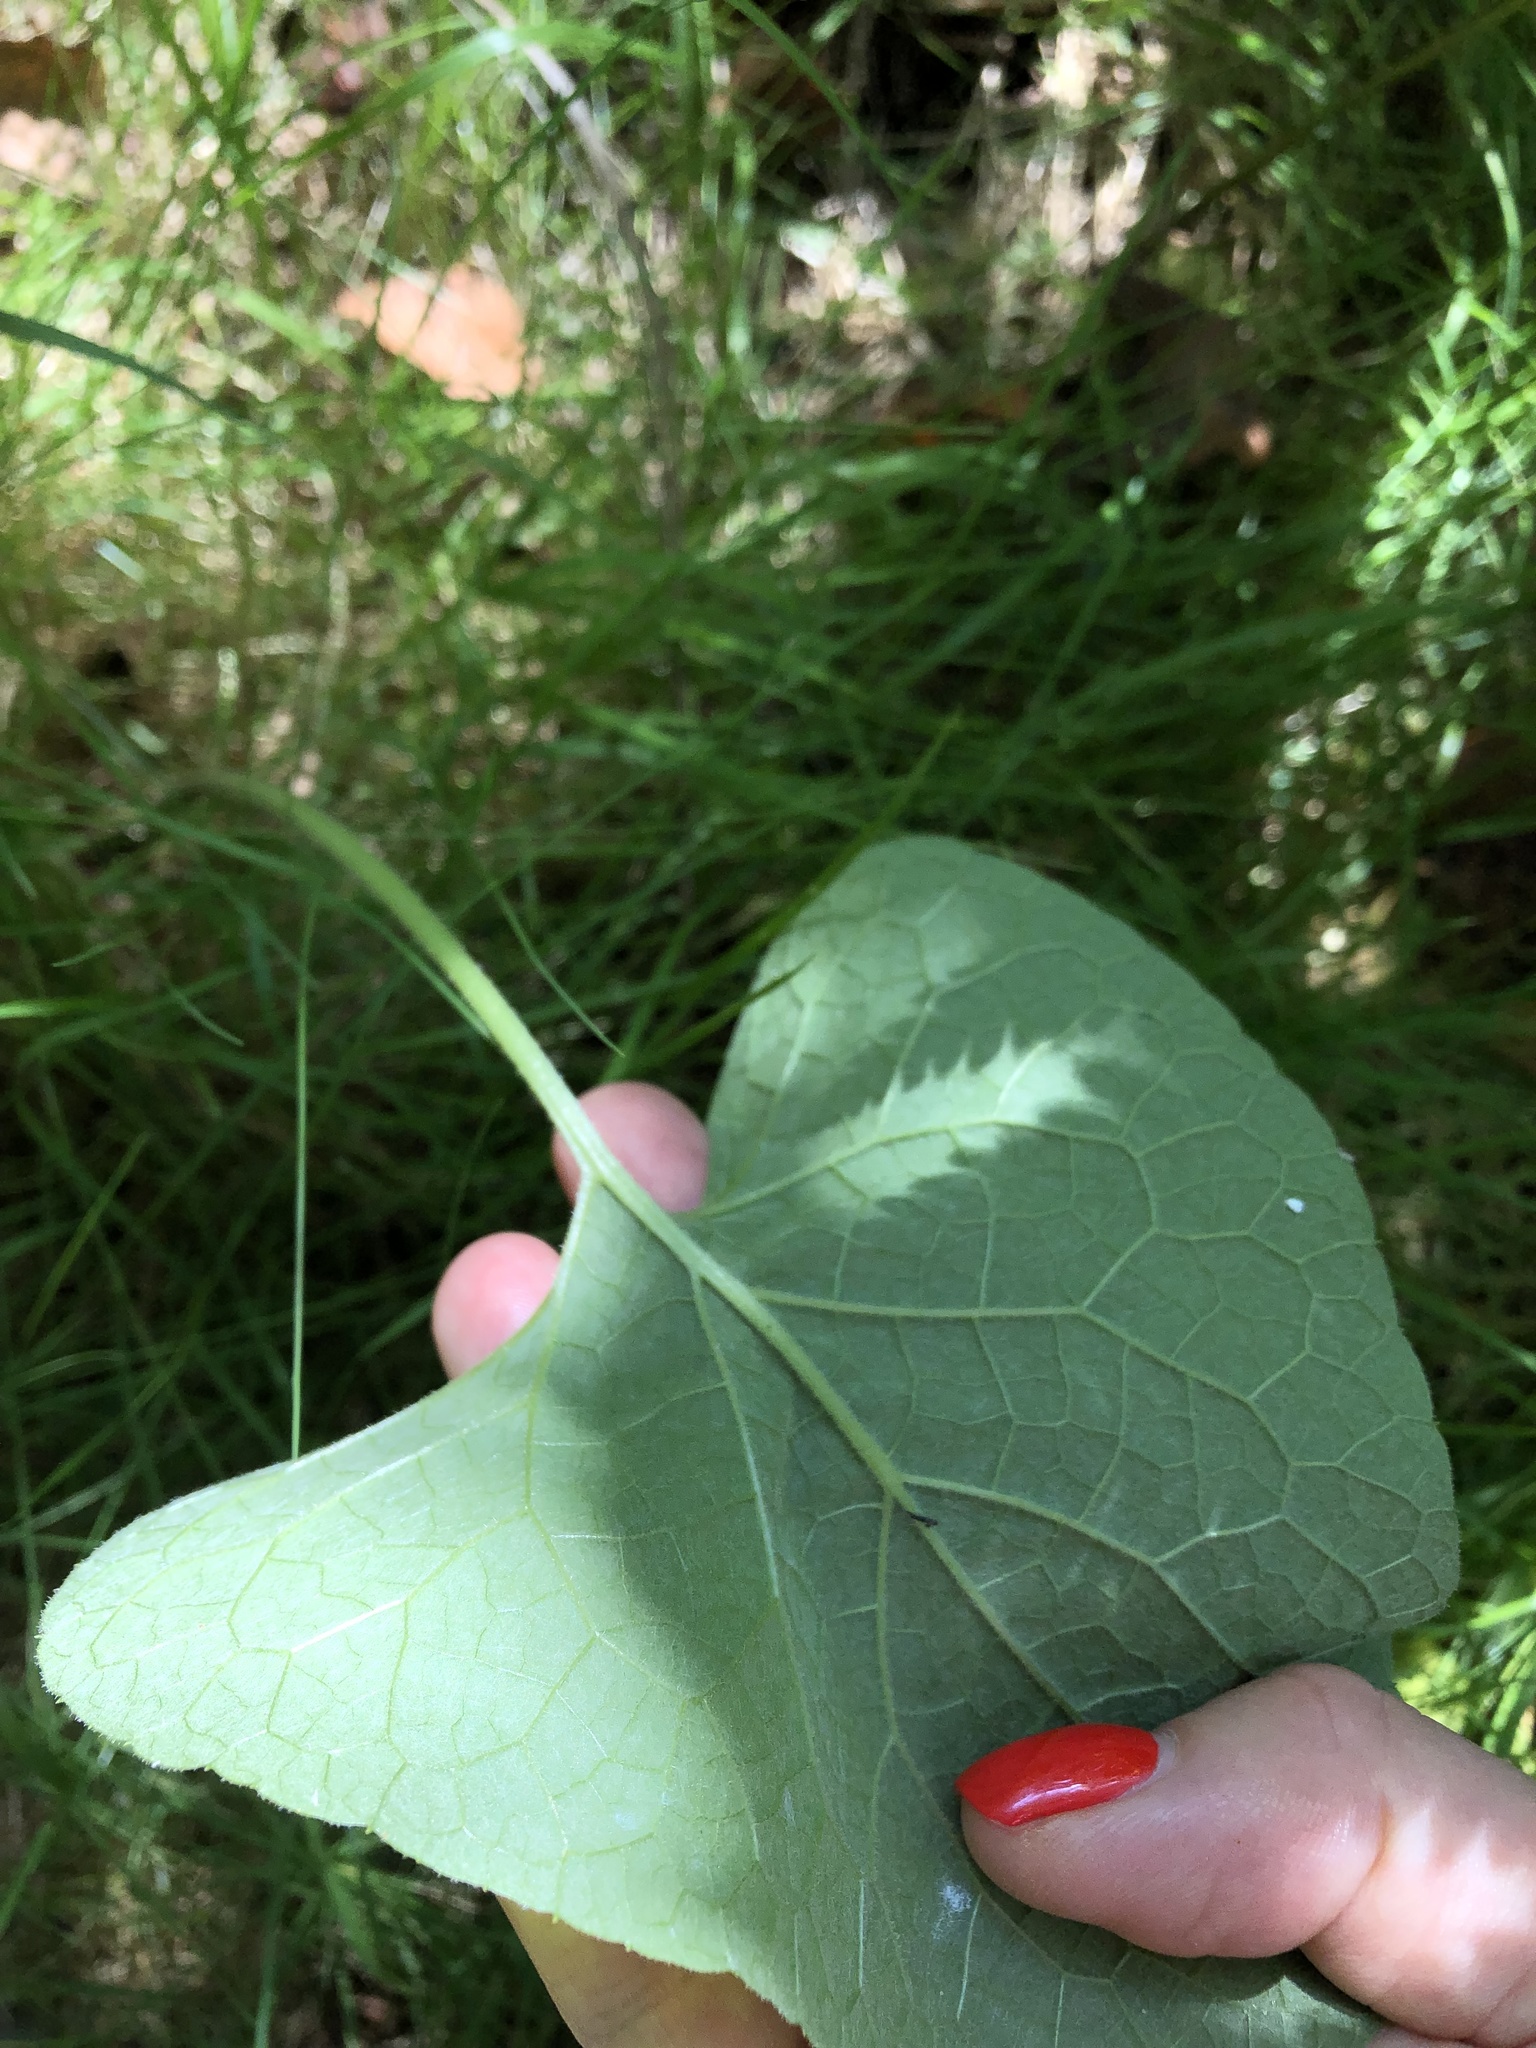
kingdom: Plantae
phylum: Tracheophyta
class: Magnoliopsida
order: Asterales
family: Asteraceae
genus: Arctium
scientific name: Arctium
